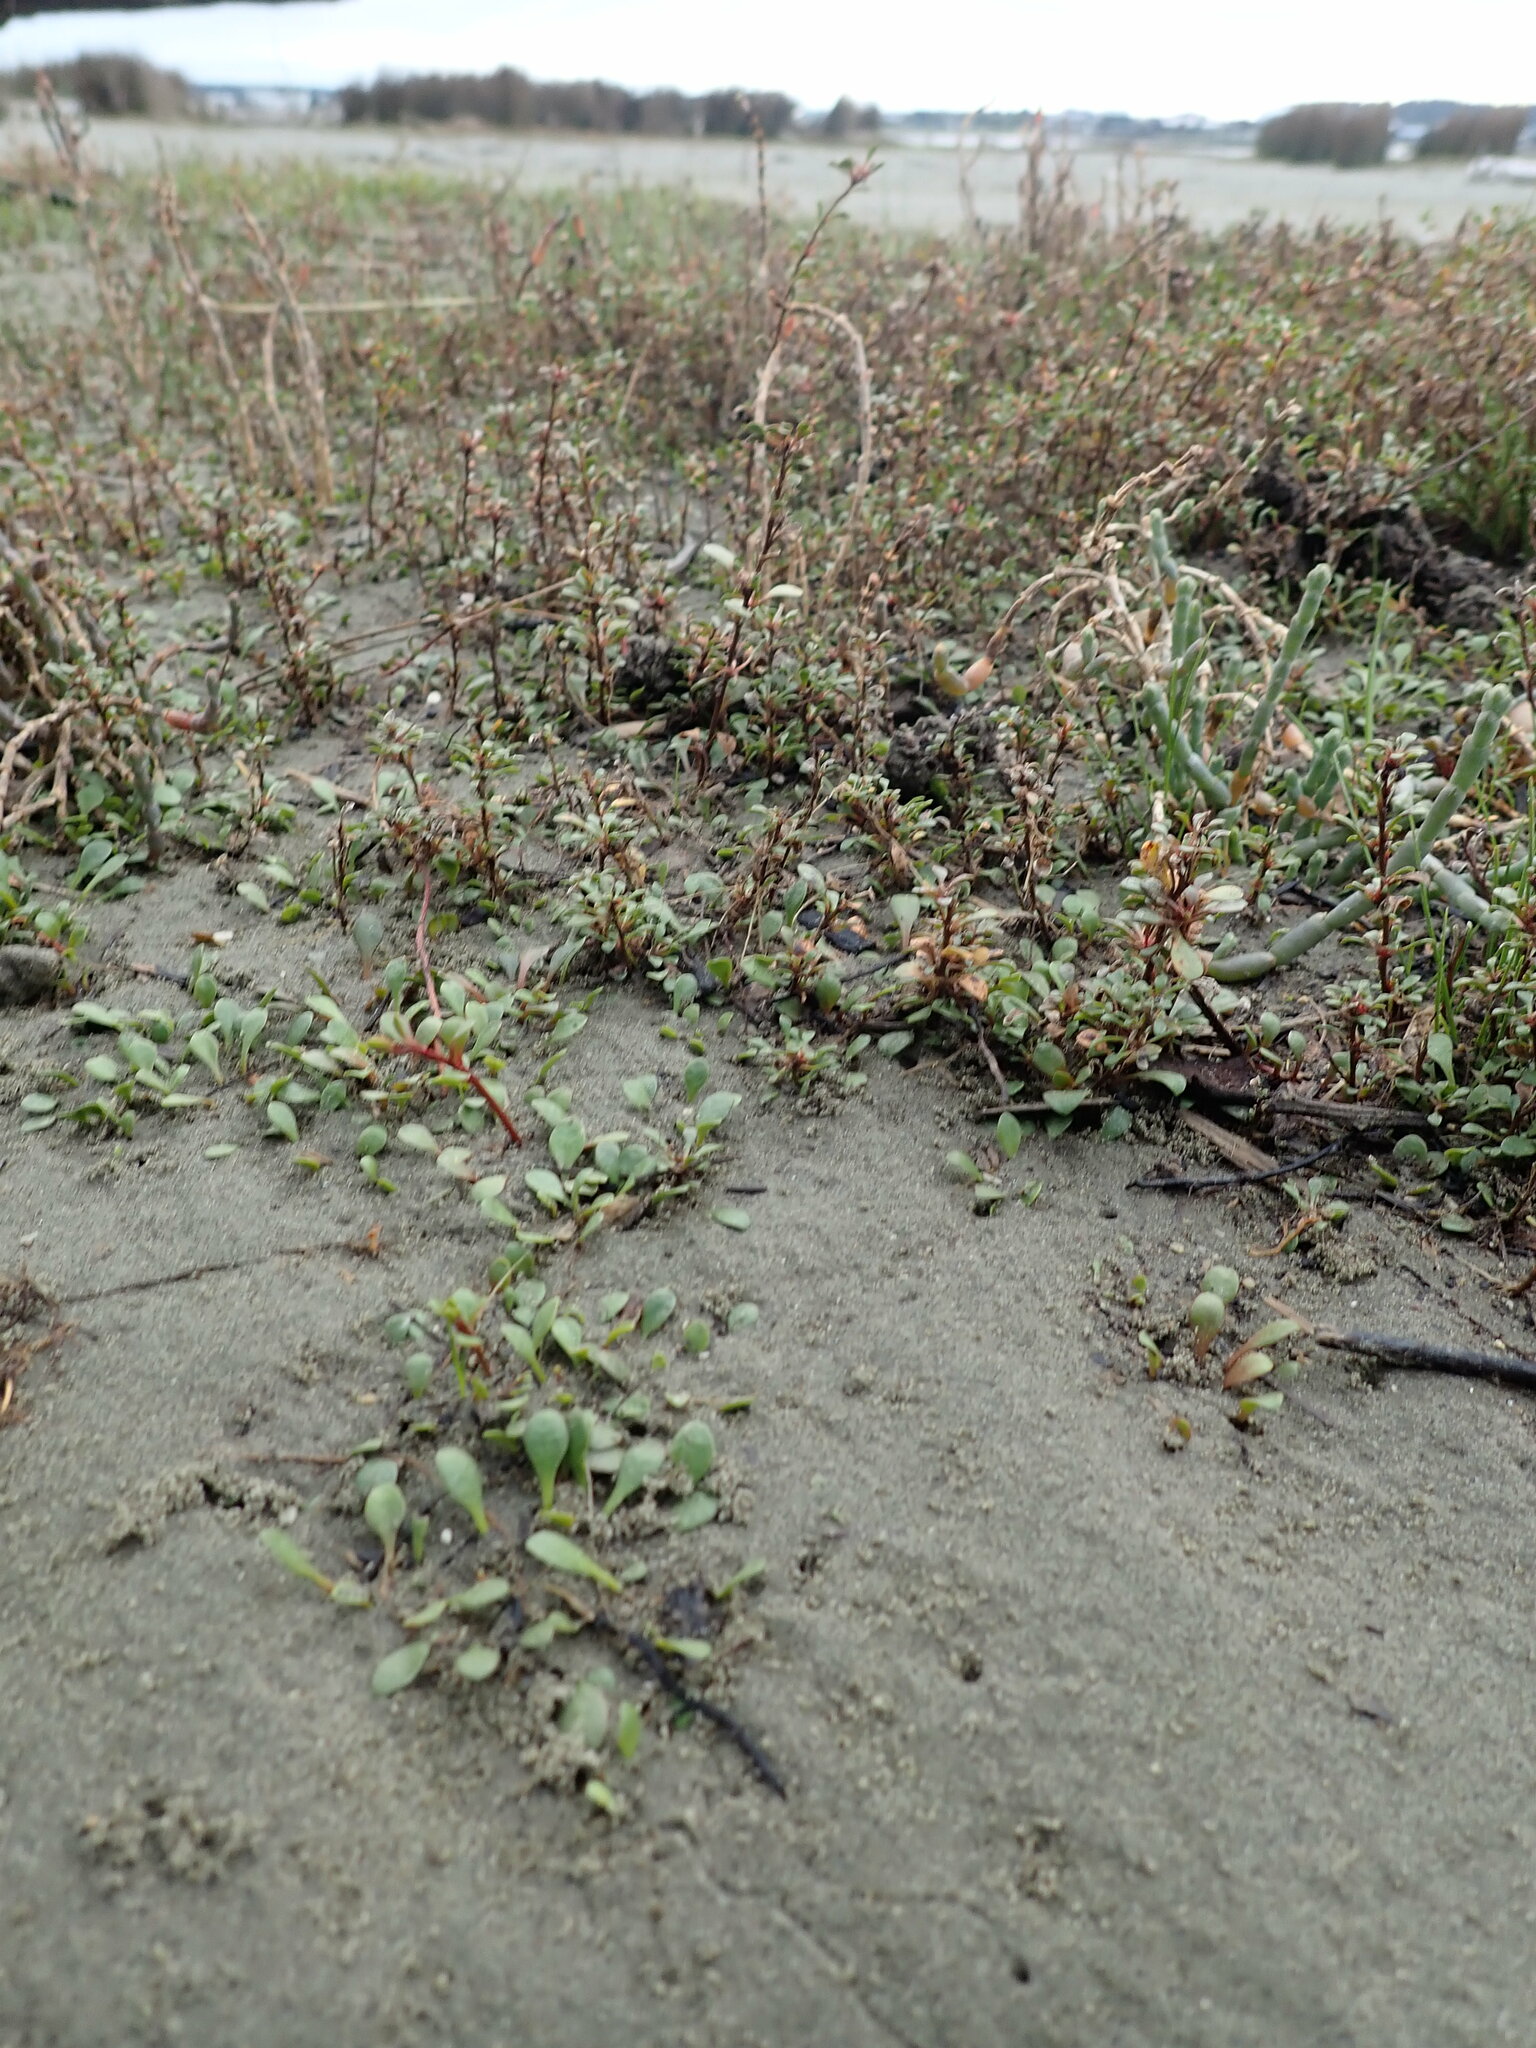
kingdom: Plantae
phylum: Tracheophyta
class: Magnoliopsida
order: Ericales
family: Primulaceae
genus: Samolus
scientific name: Samolus repens
